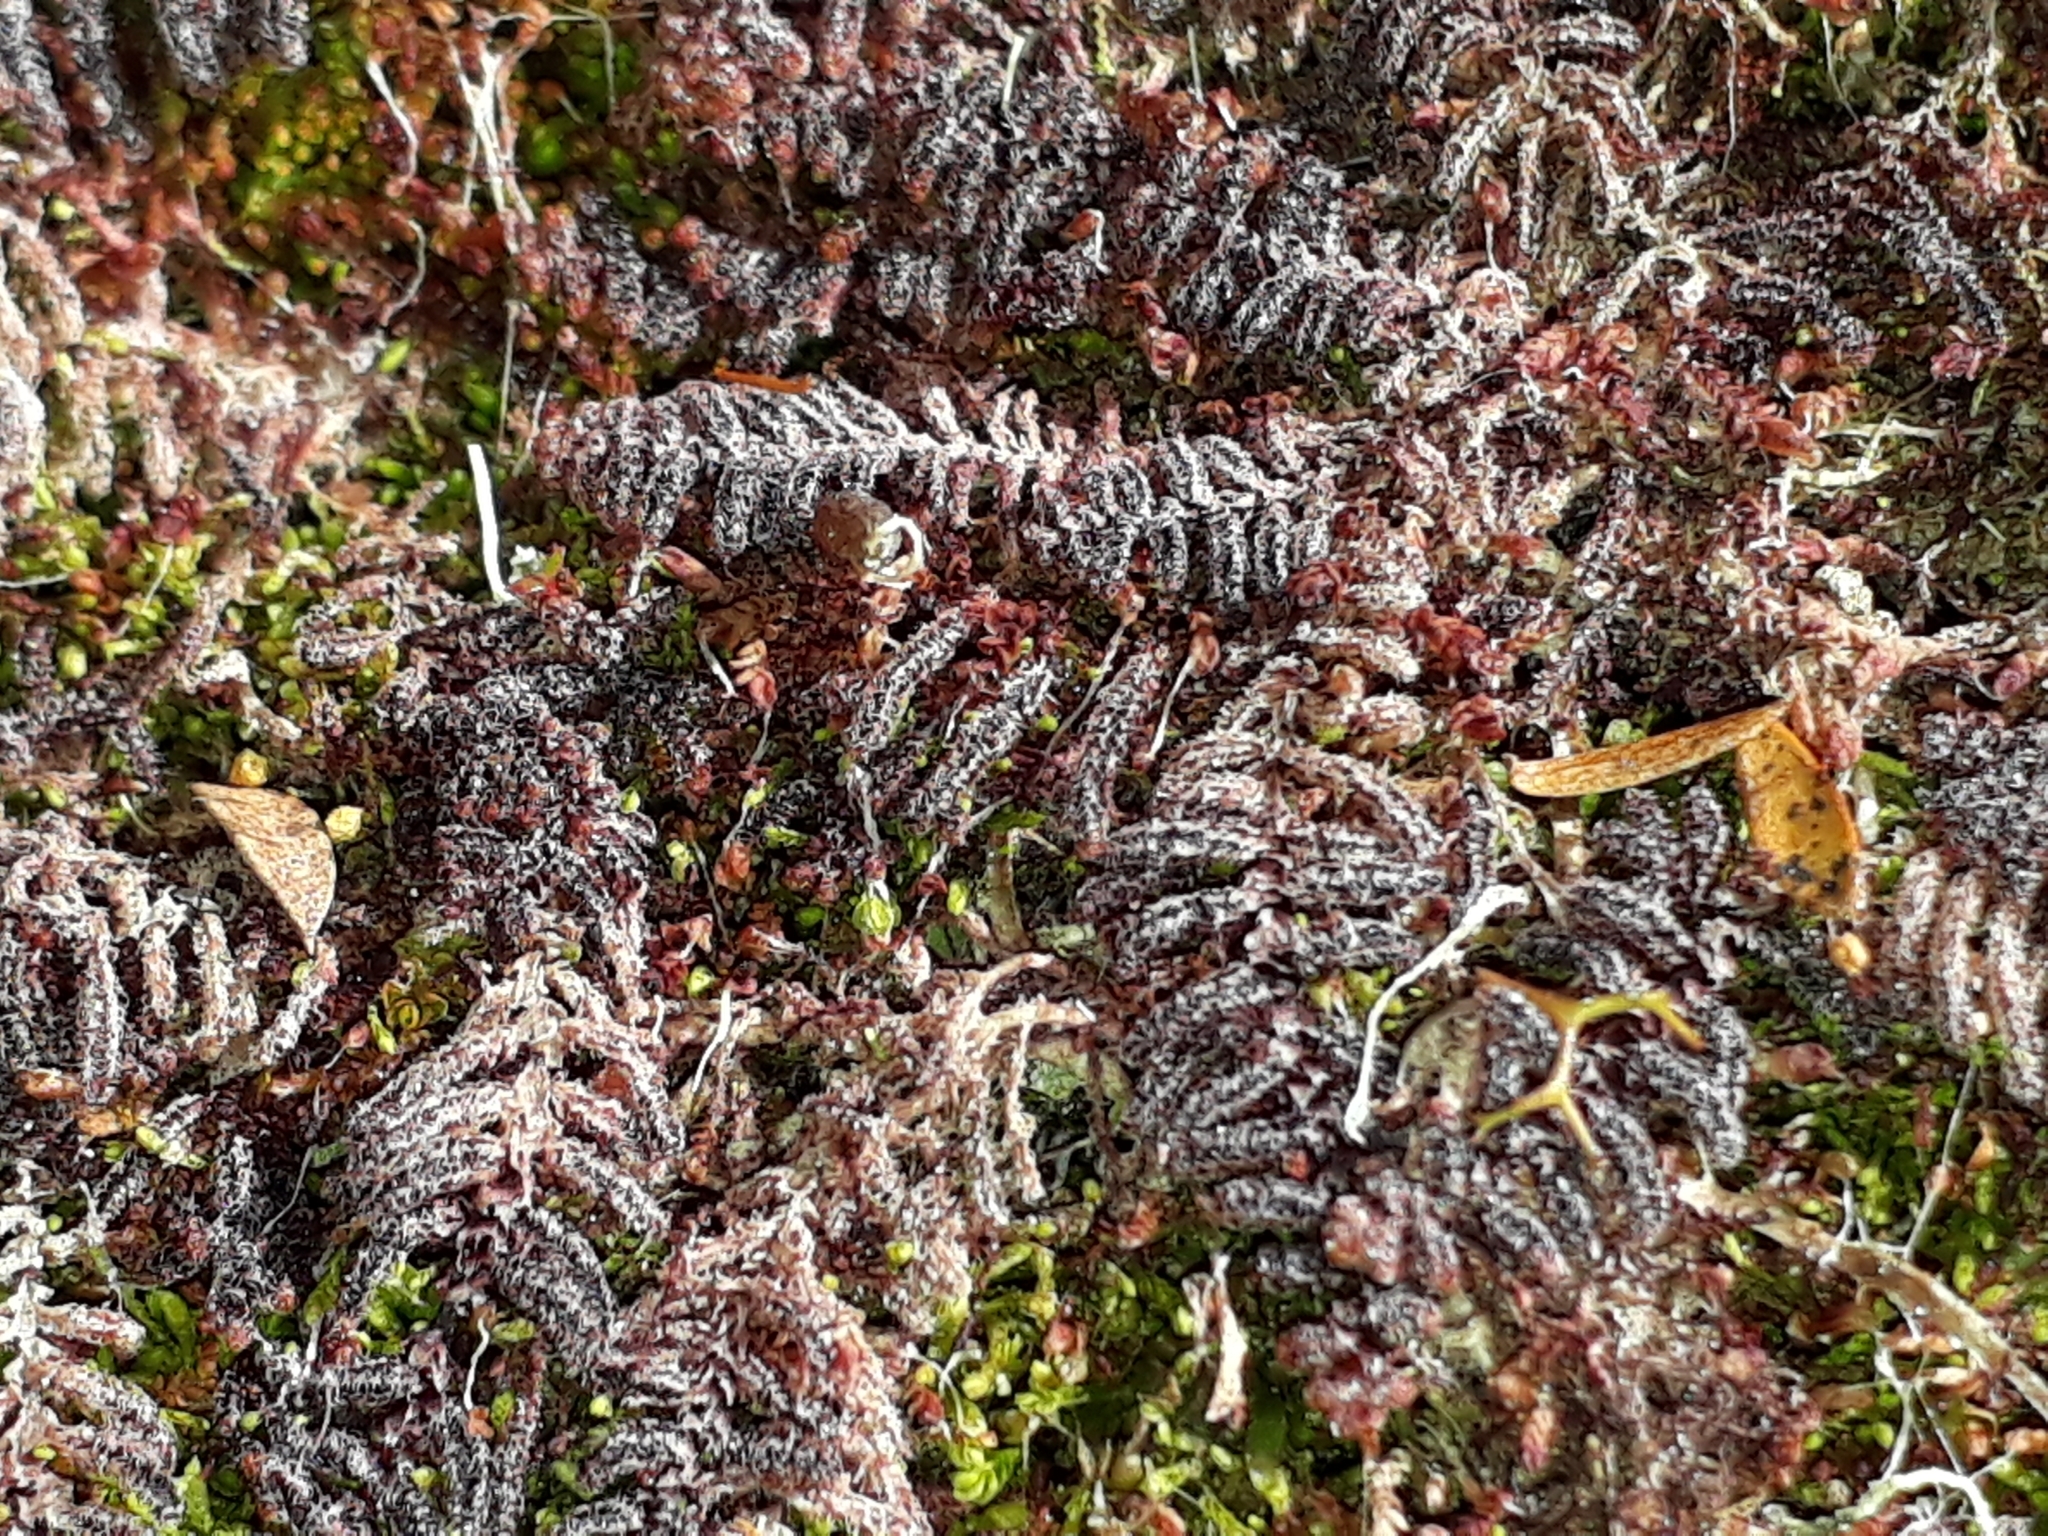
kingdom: Plantae
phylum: Marchantiophyta
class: Jungermanniopsida
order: Ptilidiales
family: Herzogianthaceae
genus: Herzogianthus
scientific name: Herzogianthus vaginatus
